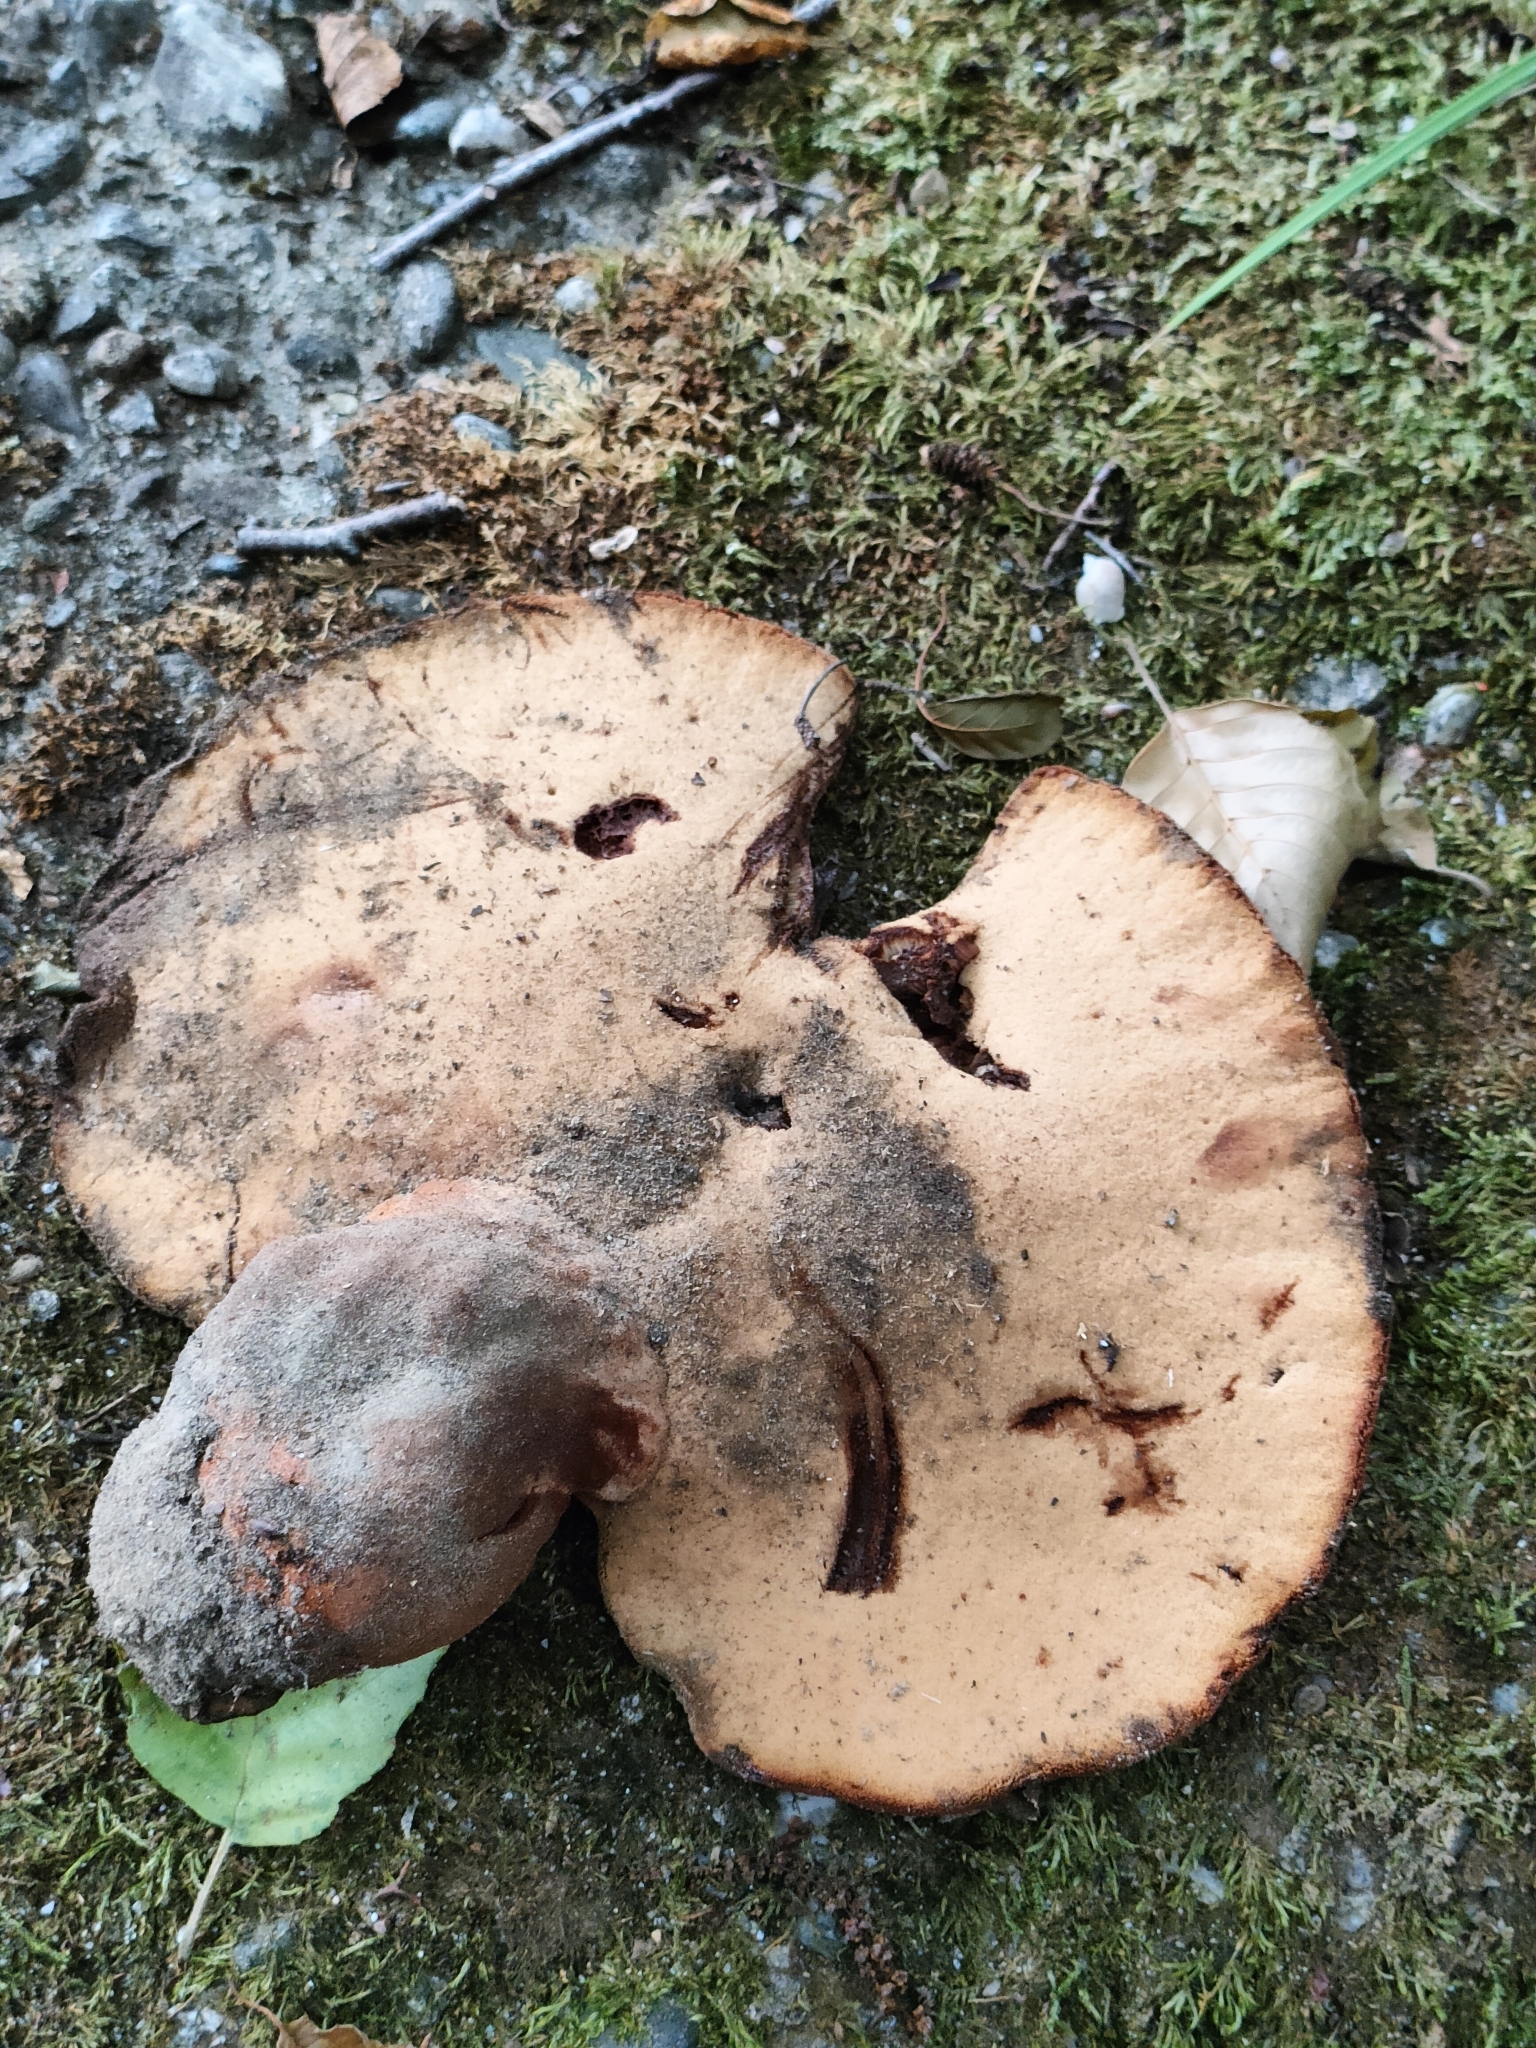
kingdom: Fungi
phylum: Basidiomycota
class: Agaricomycetes
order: Agaricales
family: Fistulinaceae
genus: Fistulina
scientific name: Fistulina hepatica
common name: Beef-steak fungus
